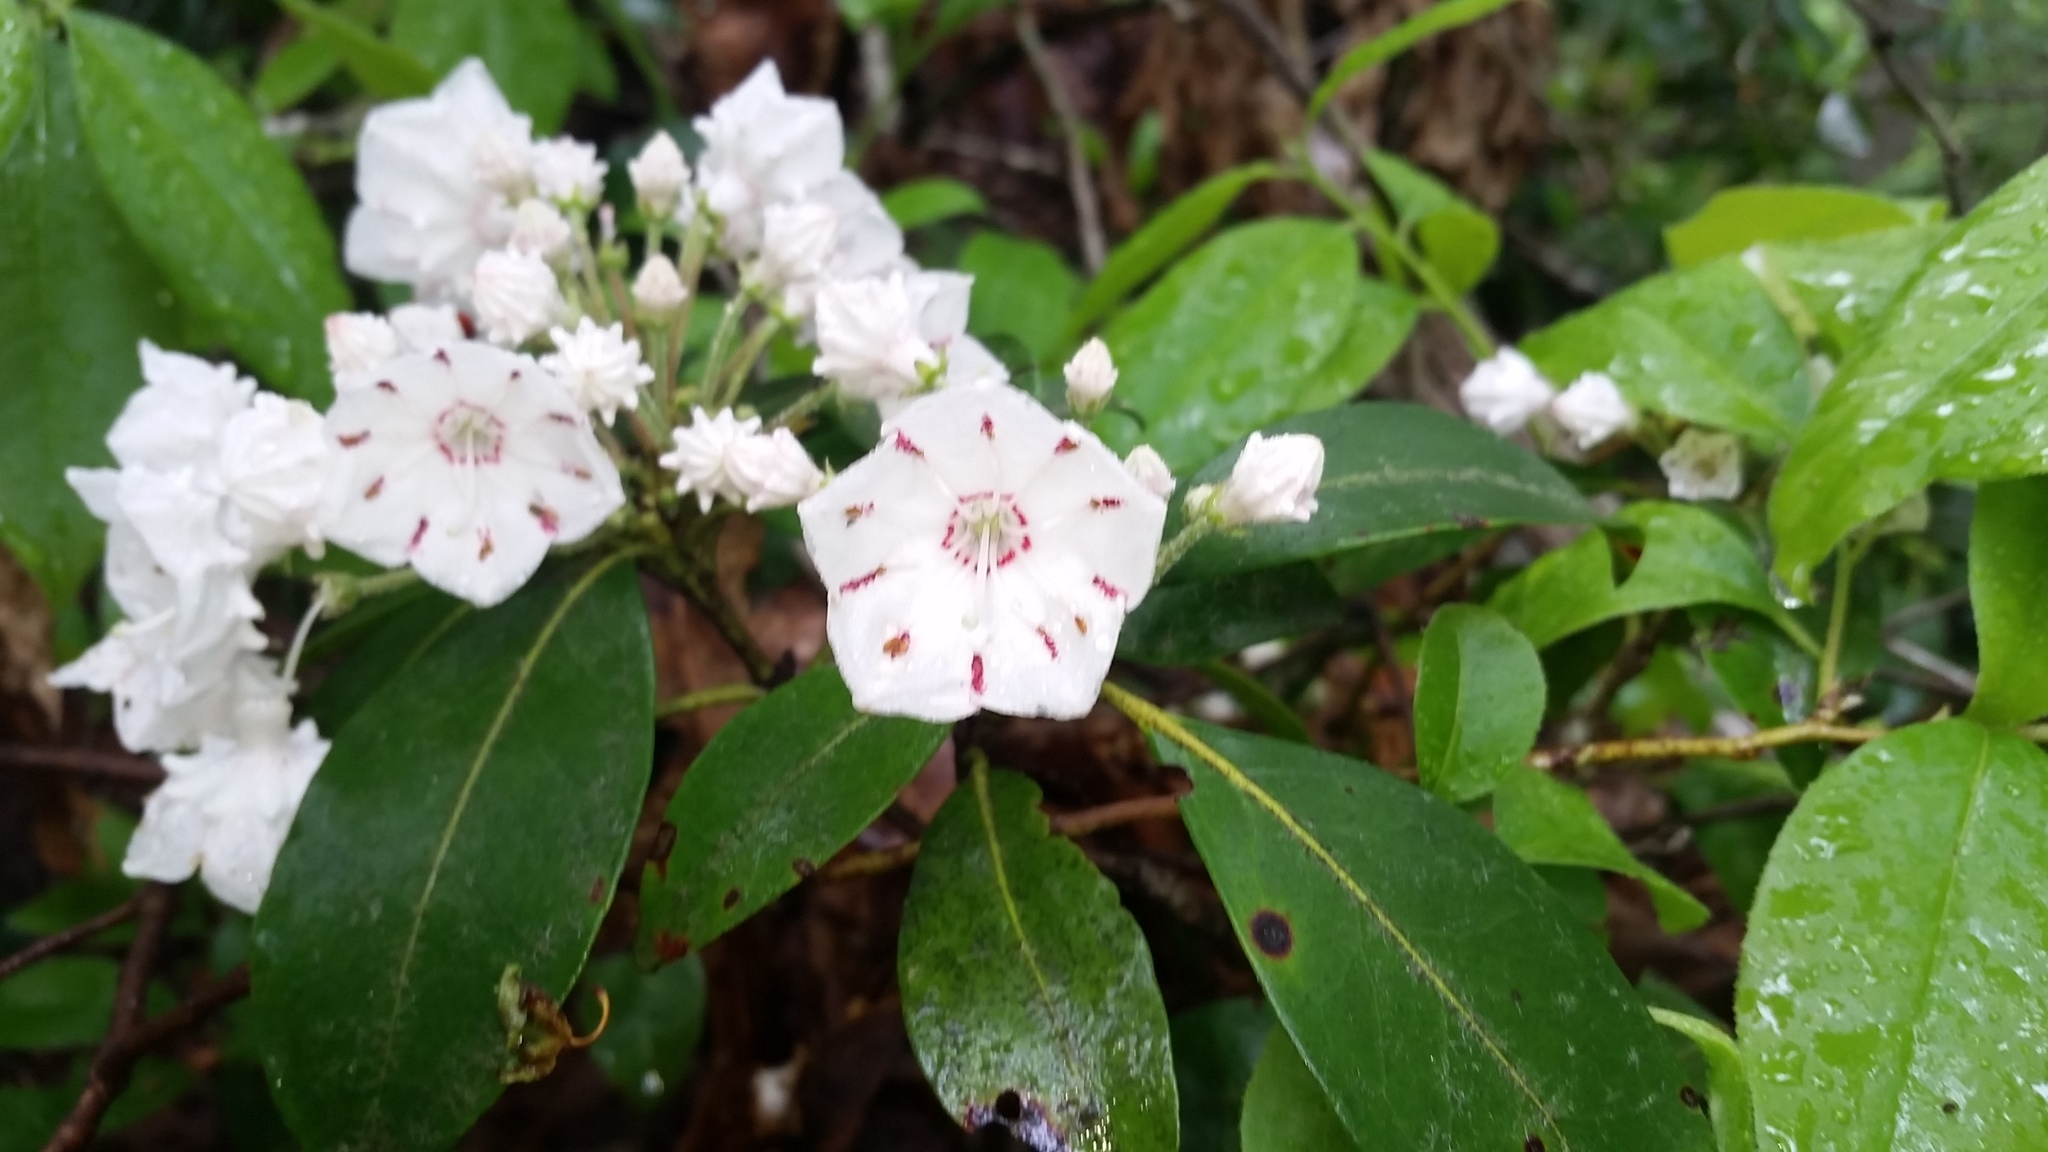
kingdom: Plantae
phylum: Tracheophyta
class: Magnoliopsida
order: Ericales
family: Ericaceae
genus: Kalmia
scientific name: Kalmia latifolia
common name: Mountain-laurel
